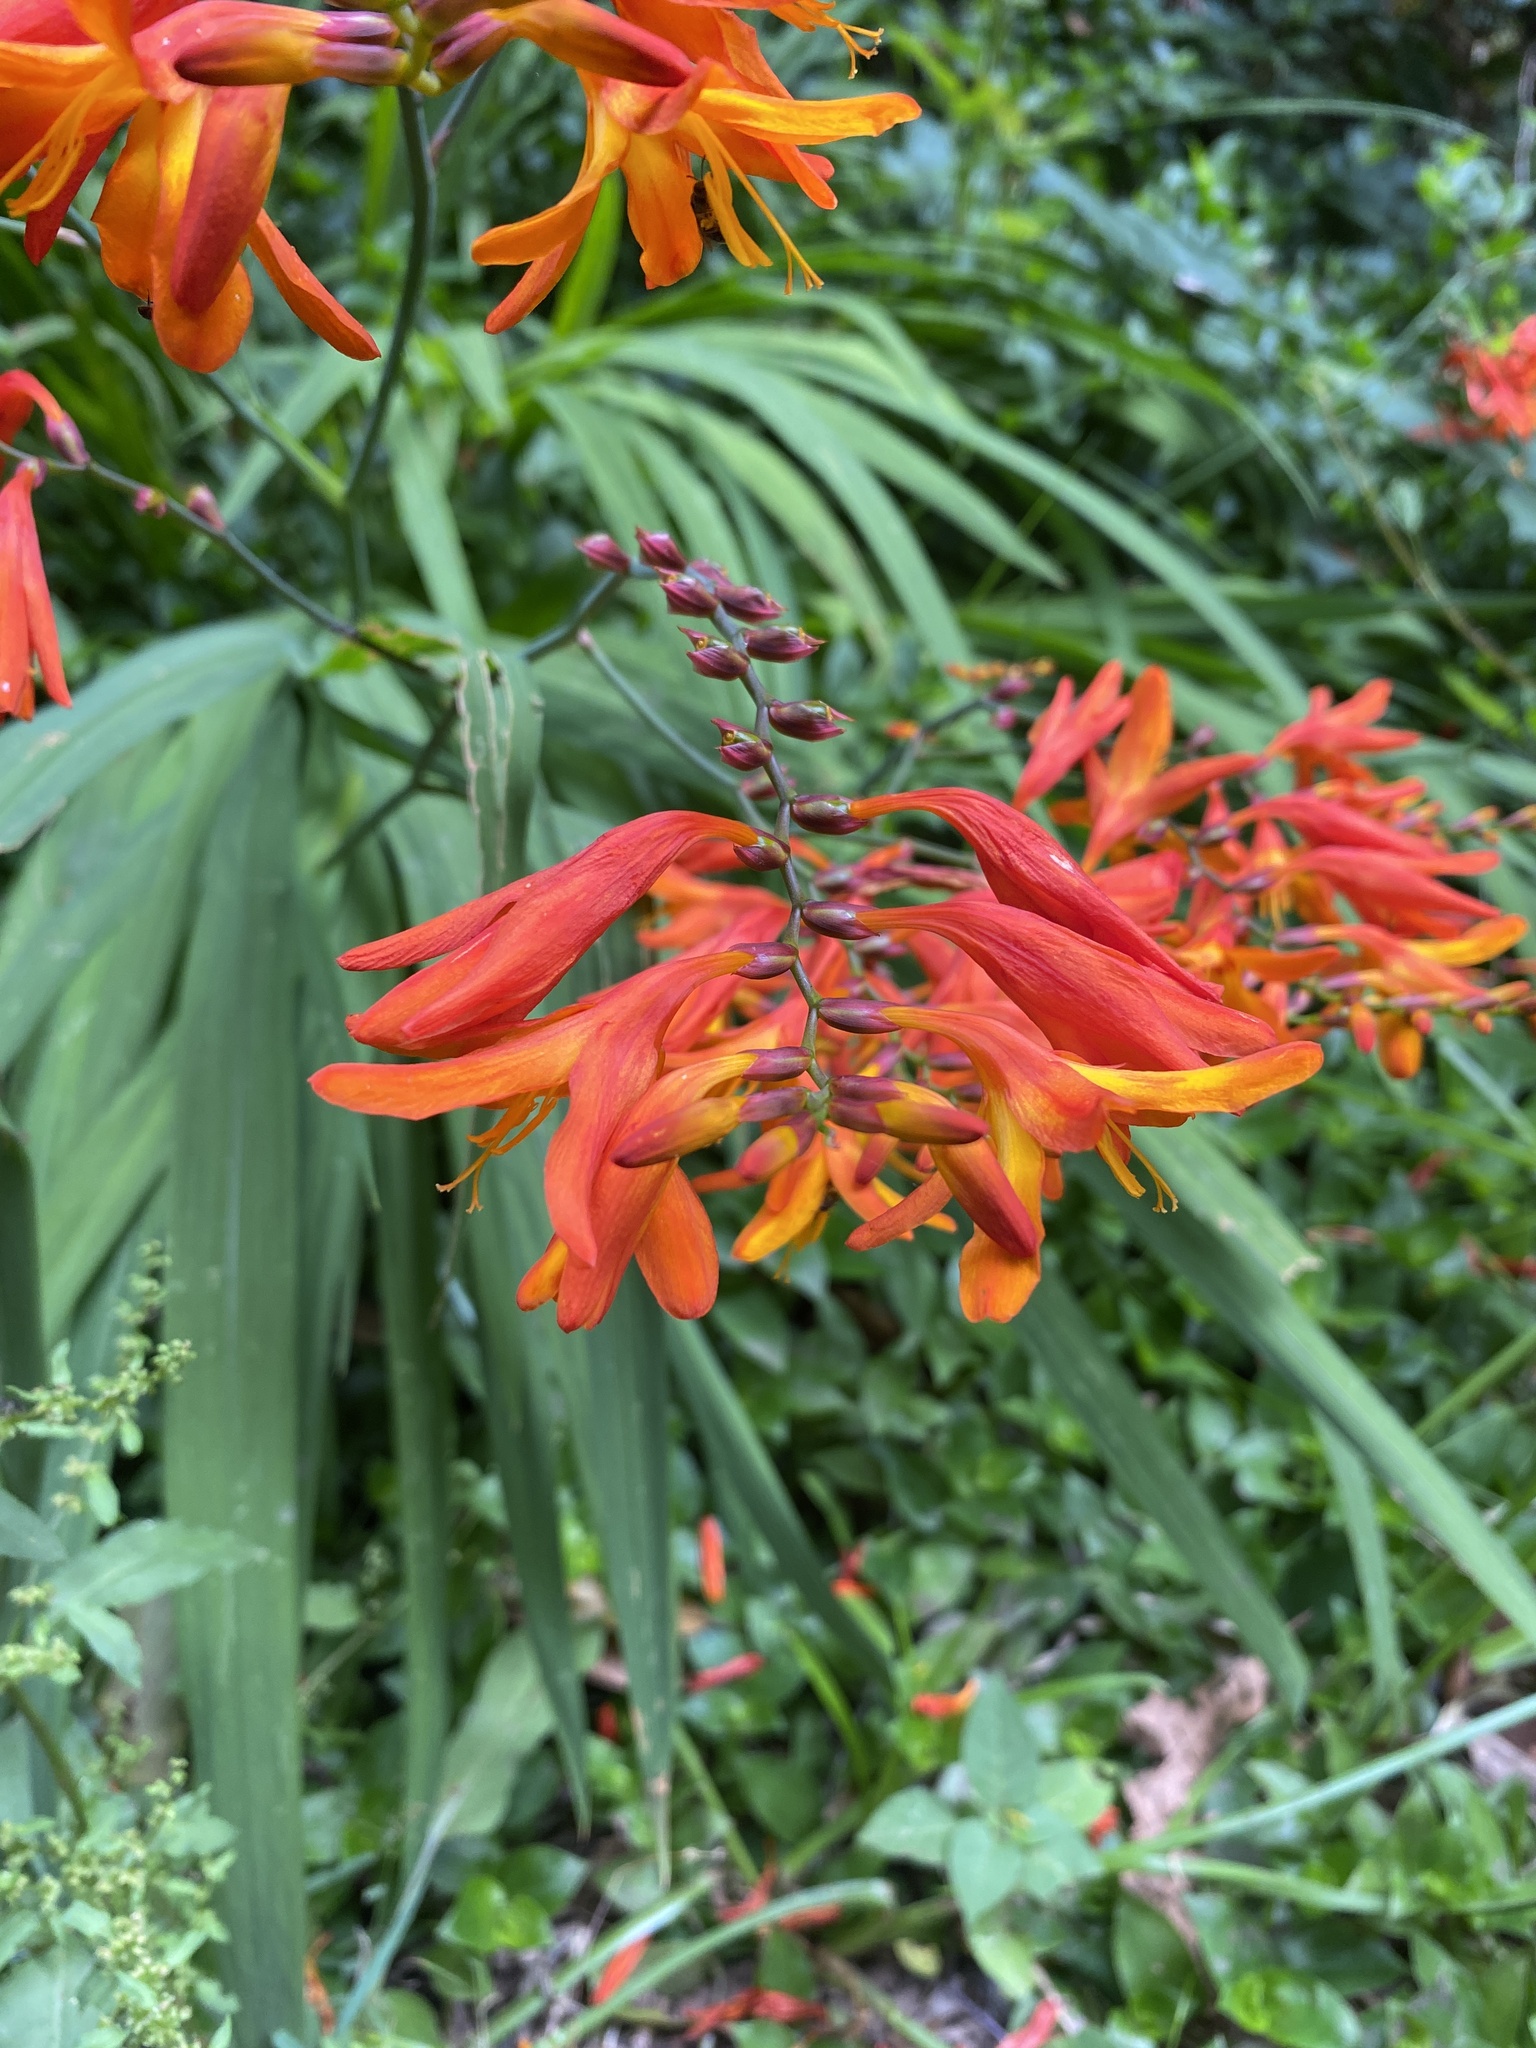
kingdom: Plantae
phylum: Tracheophyta
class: Liliopsida
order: Asparagales
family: Iridaceae
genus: Crocosmia
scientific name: Crocosmia crocosmiiflora
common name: Montbretia
